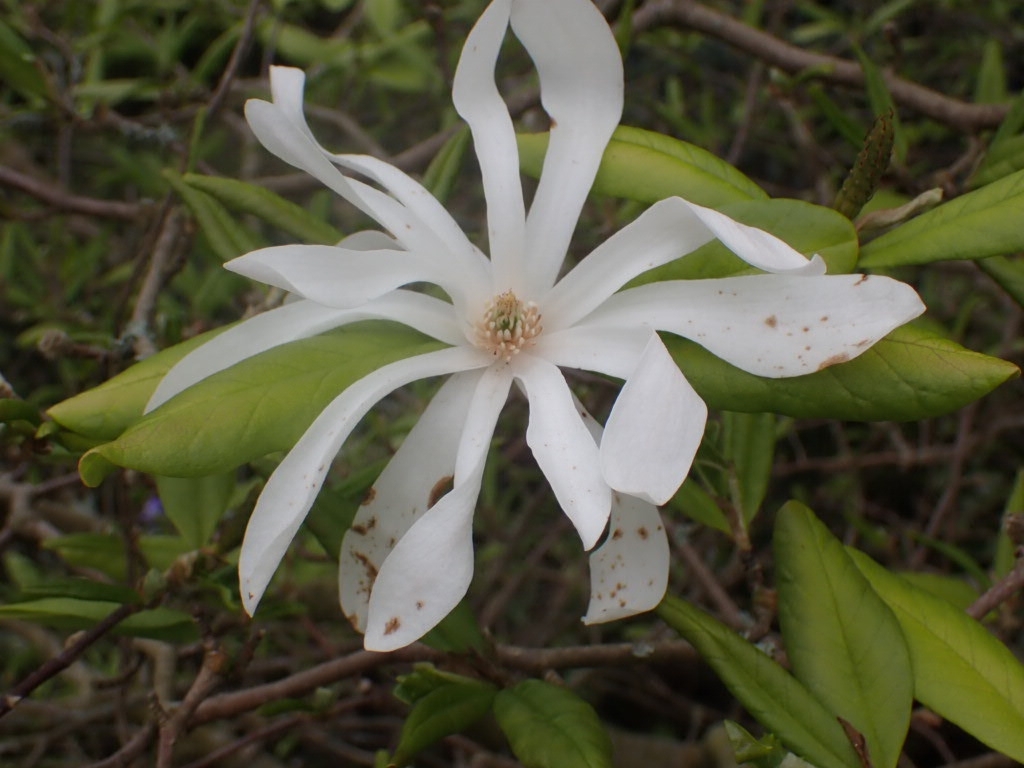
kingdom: Plantae
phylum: Tracheophyta
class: Magnoliopsida
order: Magnoliales
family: Magnoliaceae
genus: Magnolia
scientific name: Magnolia stellata
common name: Star magnolia
